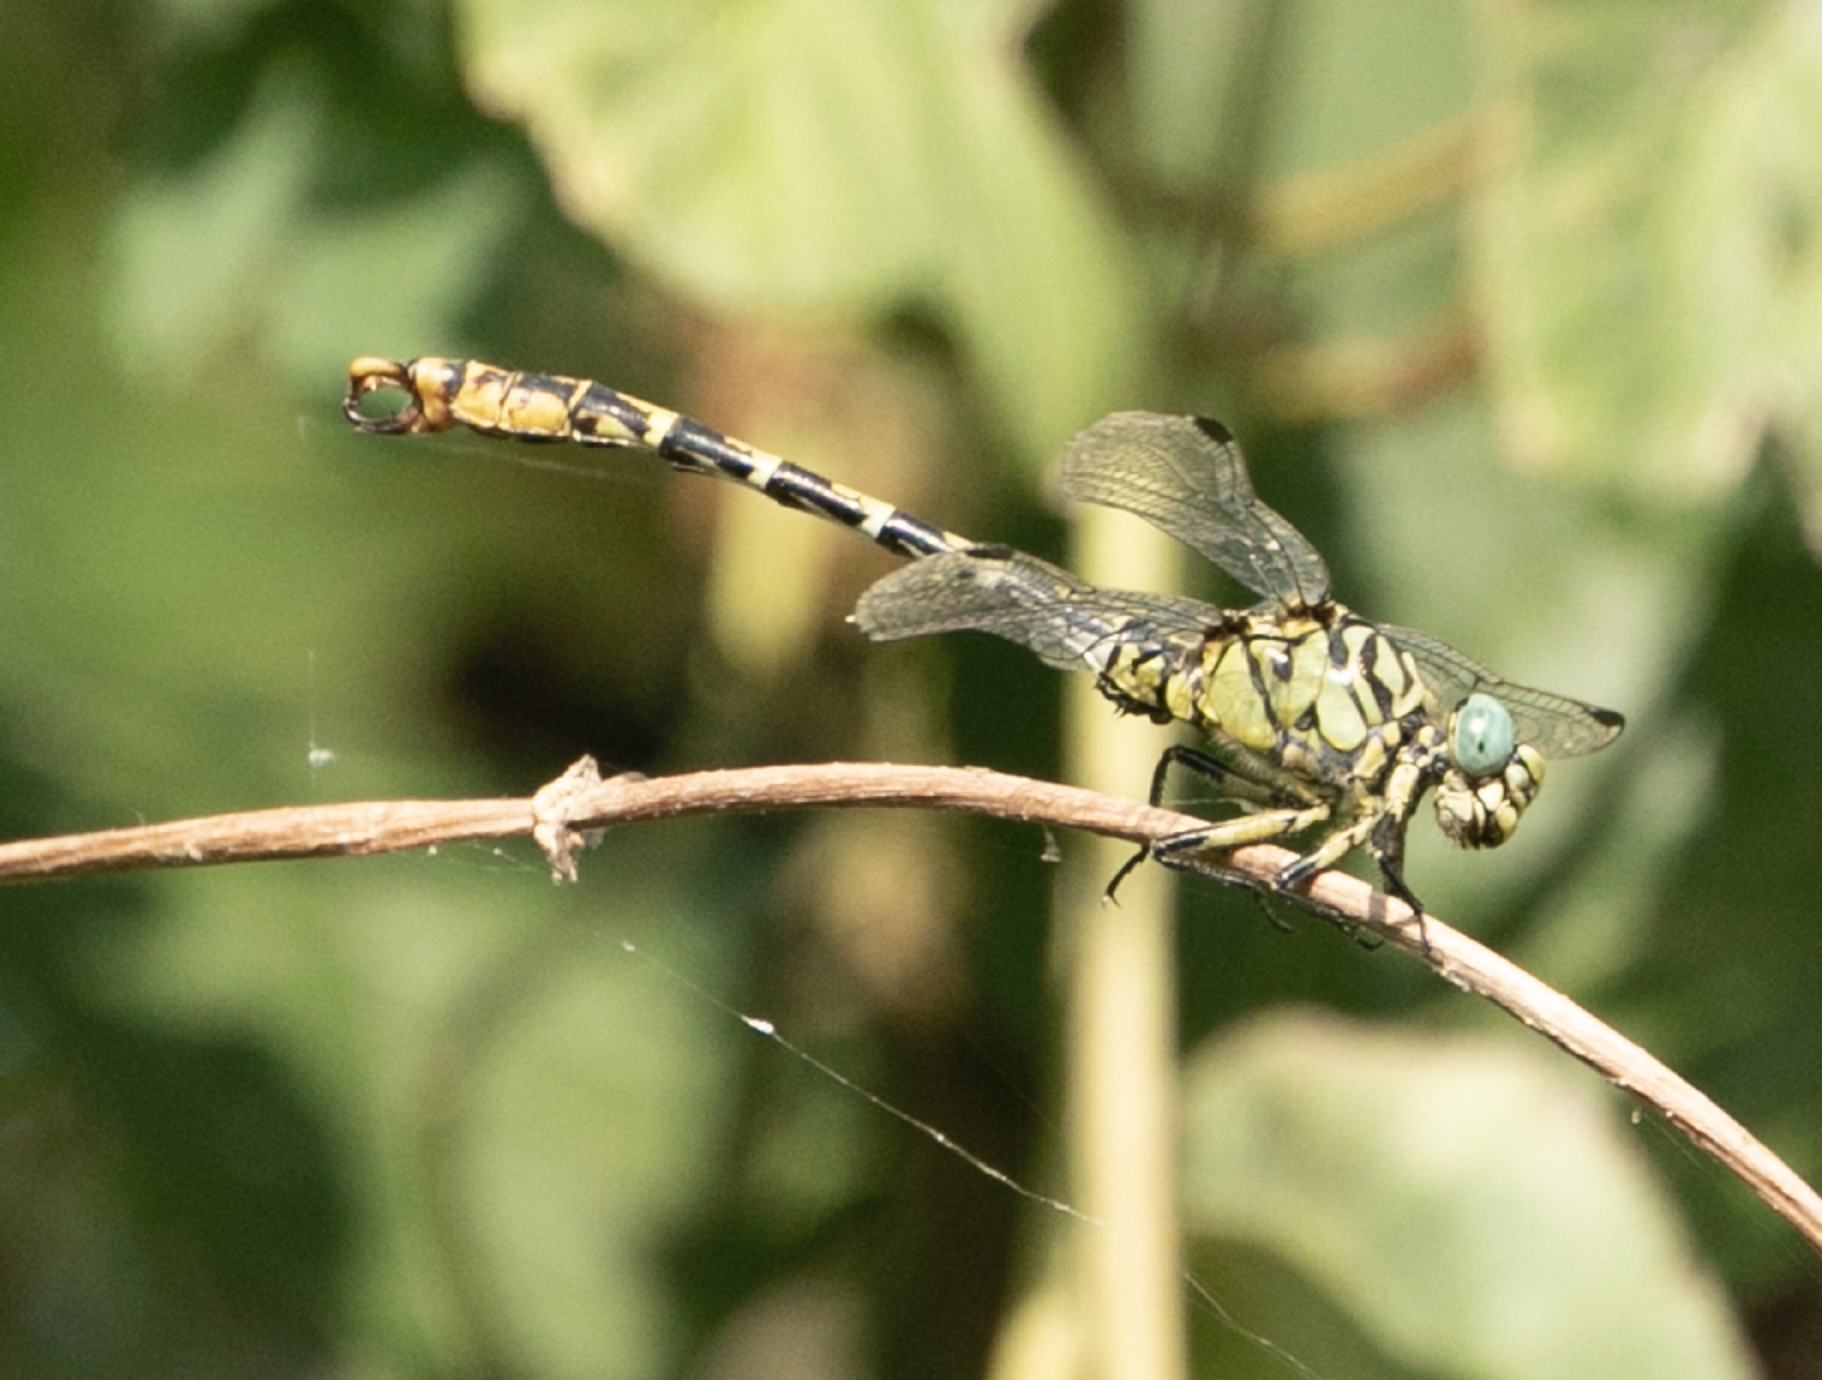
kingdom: Animalia
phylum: Arthropoda
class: Insecta
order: Odonata
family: Gomphidae
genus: Onychogomphus
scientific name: Onychogomphus forcipatus
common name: Small pincertail
